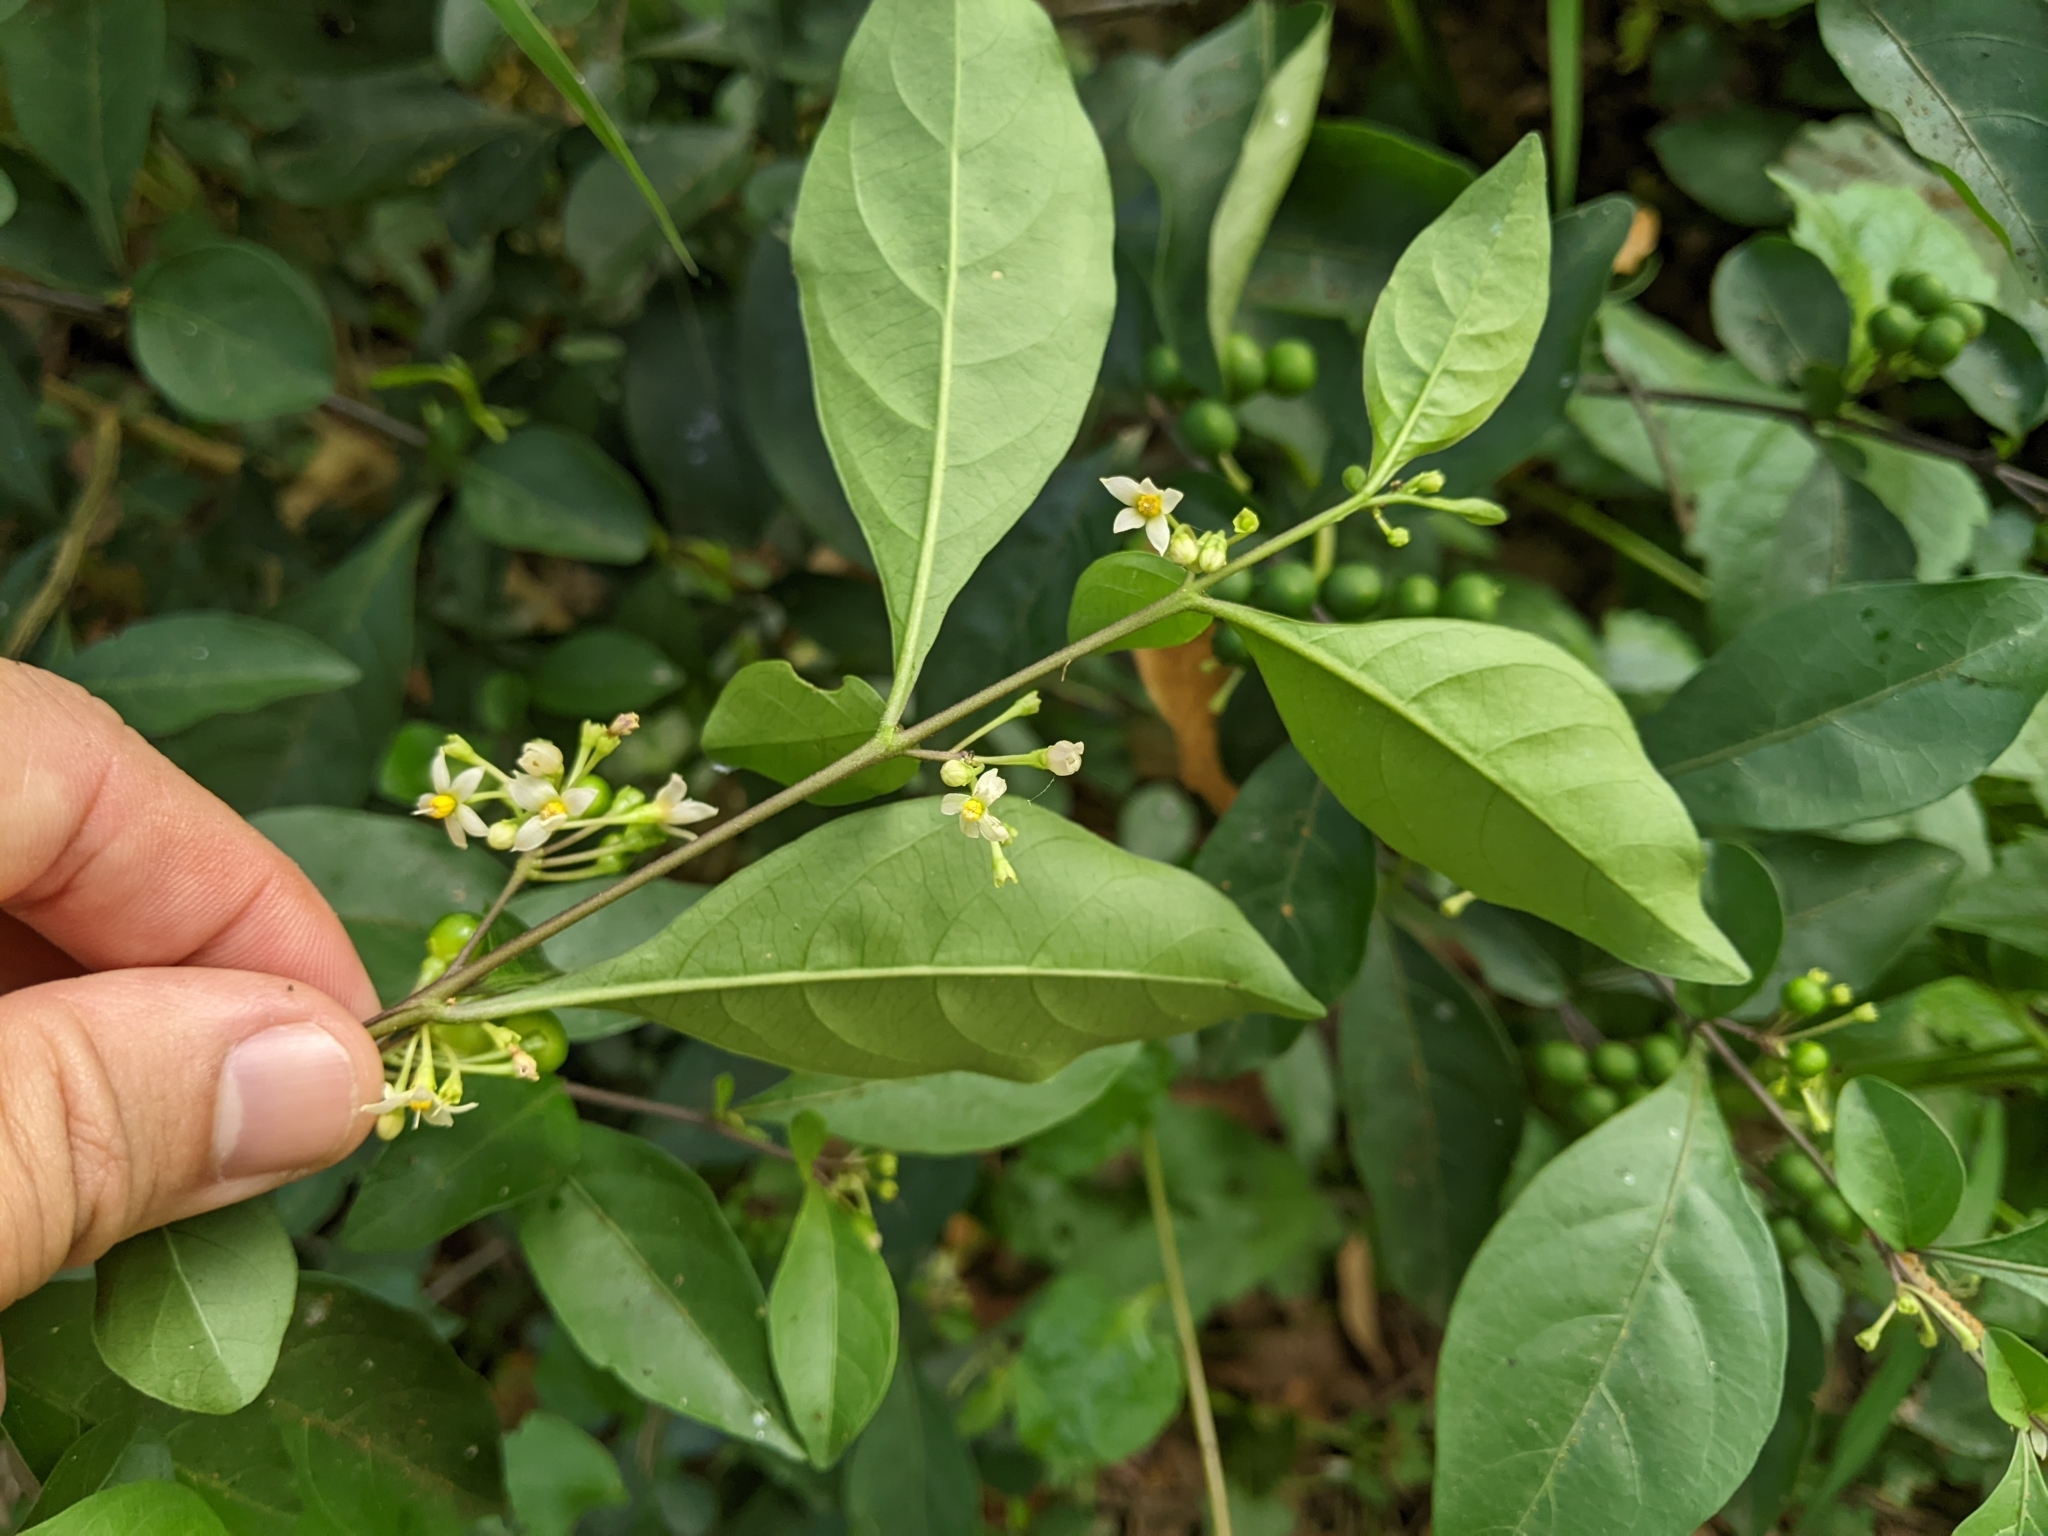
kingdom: Plantae
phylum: Tracheophyta
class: Magnoliopsida
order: Solanales
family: Solanaceae
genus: Solanum
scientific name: Solanum diphyllum
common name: Twoleaf nightshade
